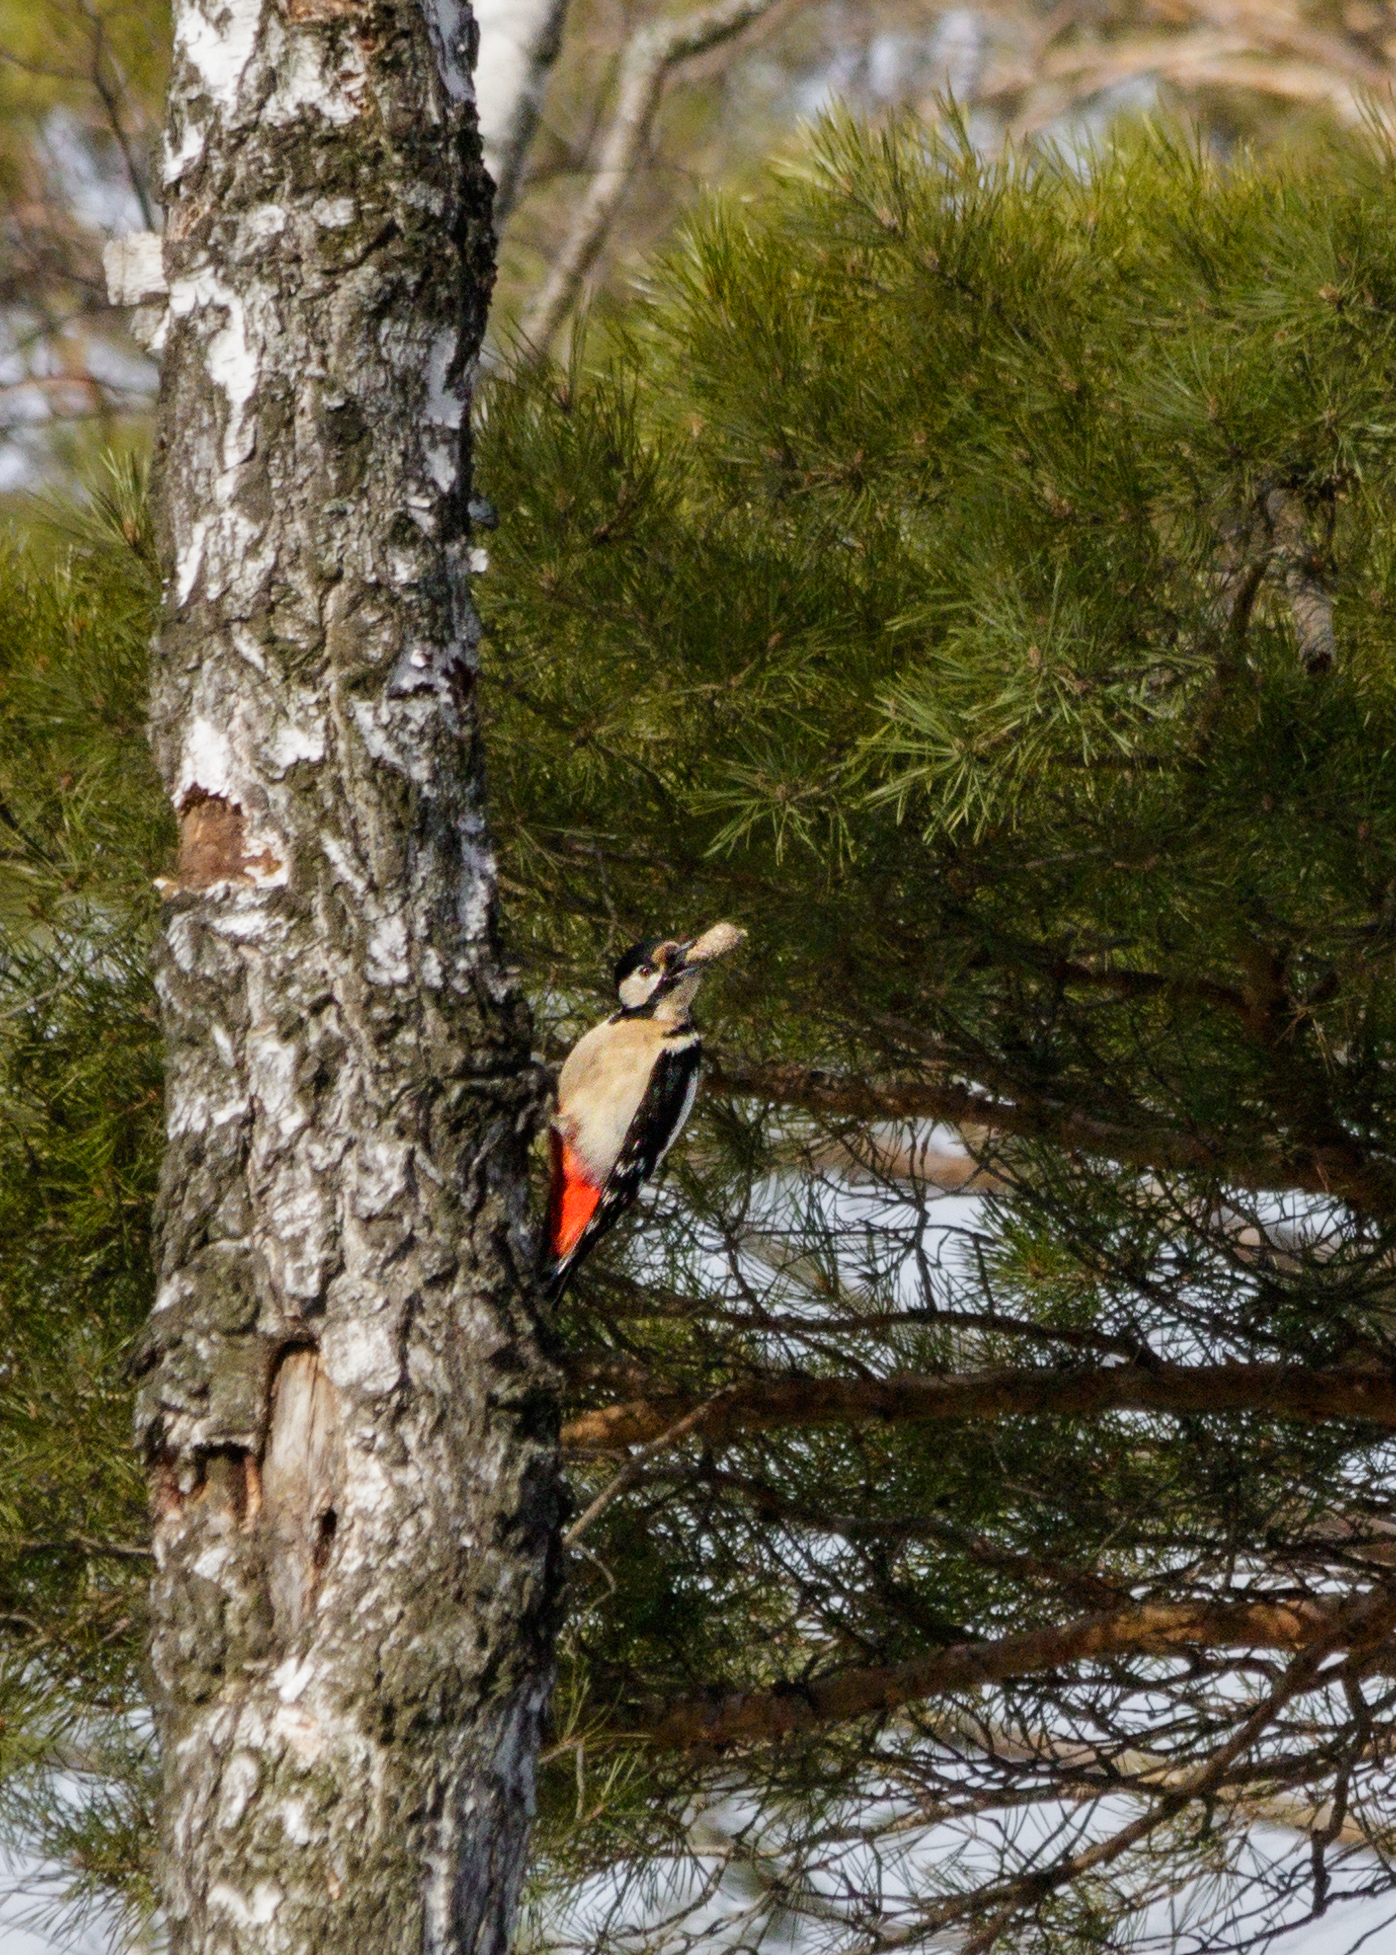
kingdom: Animalia
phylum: Chordata
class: Aves
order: Piciformes
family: Picidae
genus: Dendrocopos
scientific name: Dendrocopos major
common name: Great spotted woodpecker
